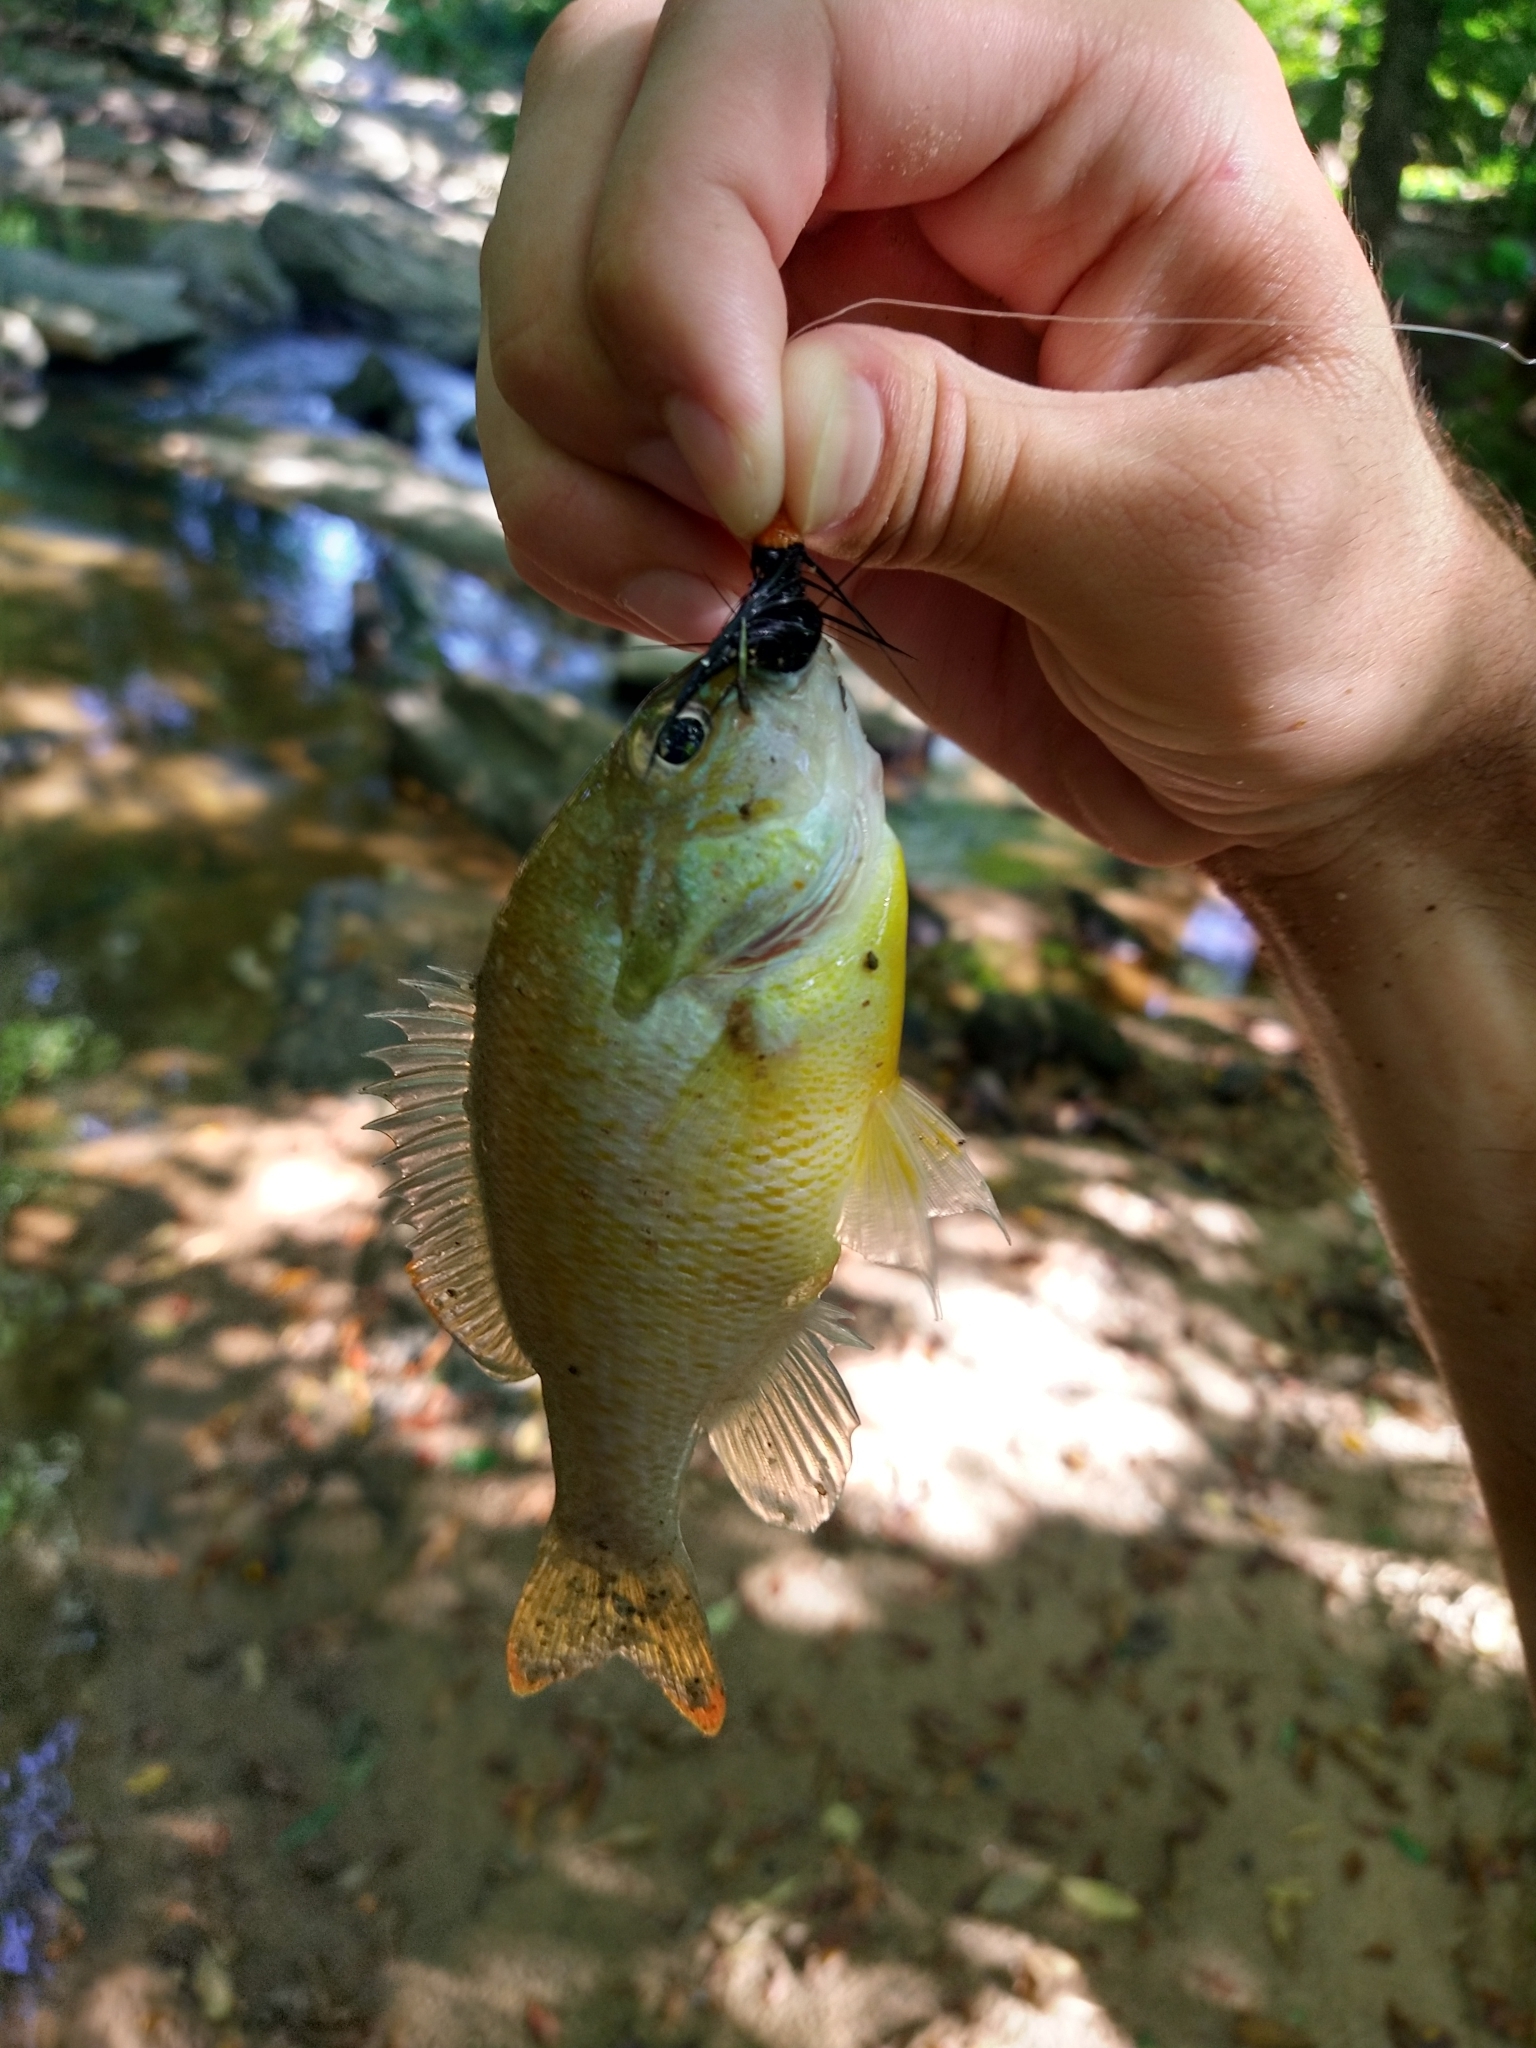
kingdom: Animalia
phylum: Chordata
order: Perciformes
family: Centrarchidae
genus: Lepomis
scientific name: Lepomis auritus
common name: Redbreast sunfish
